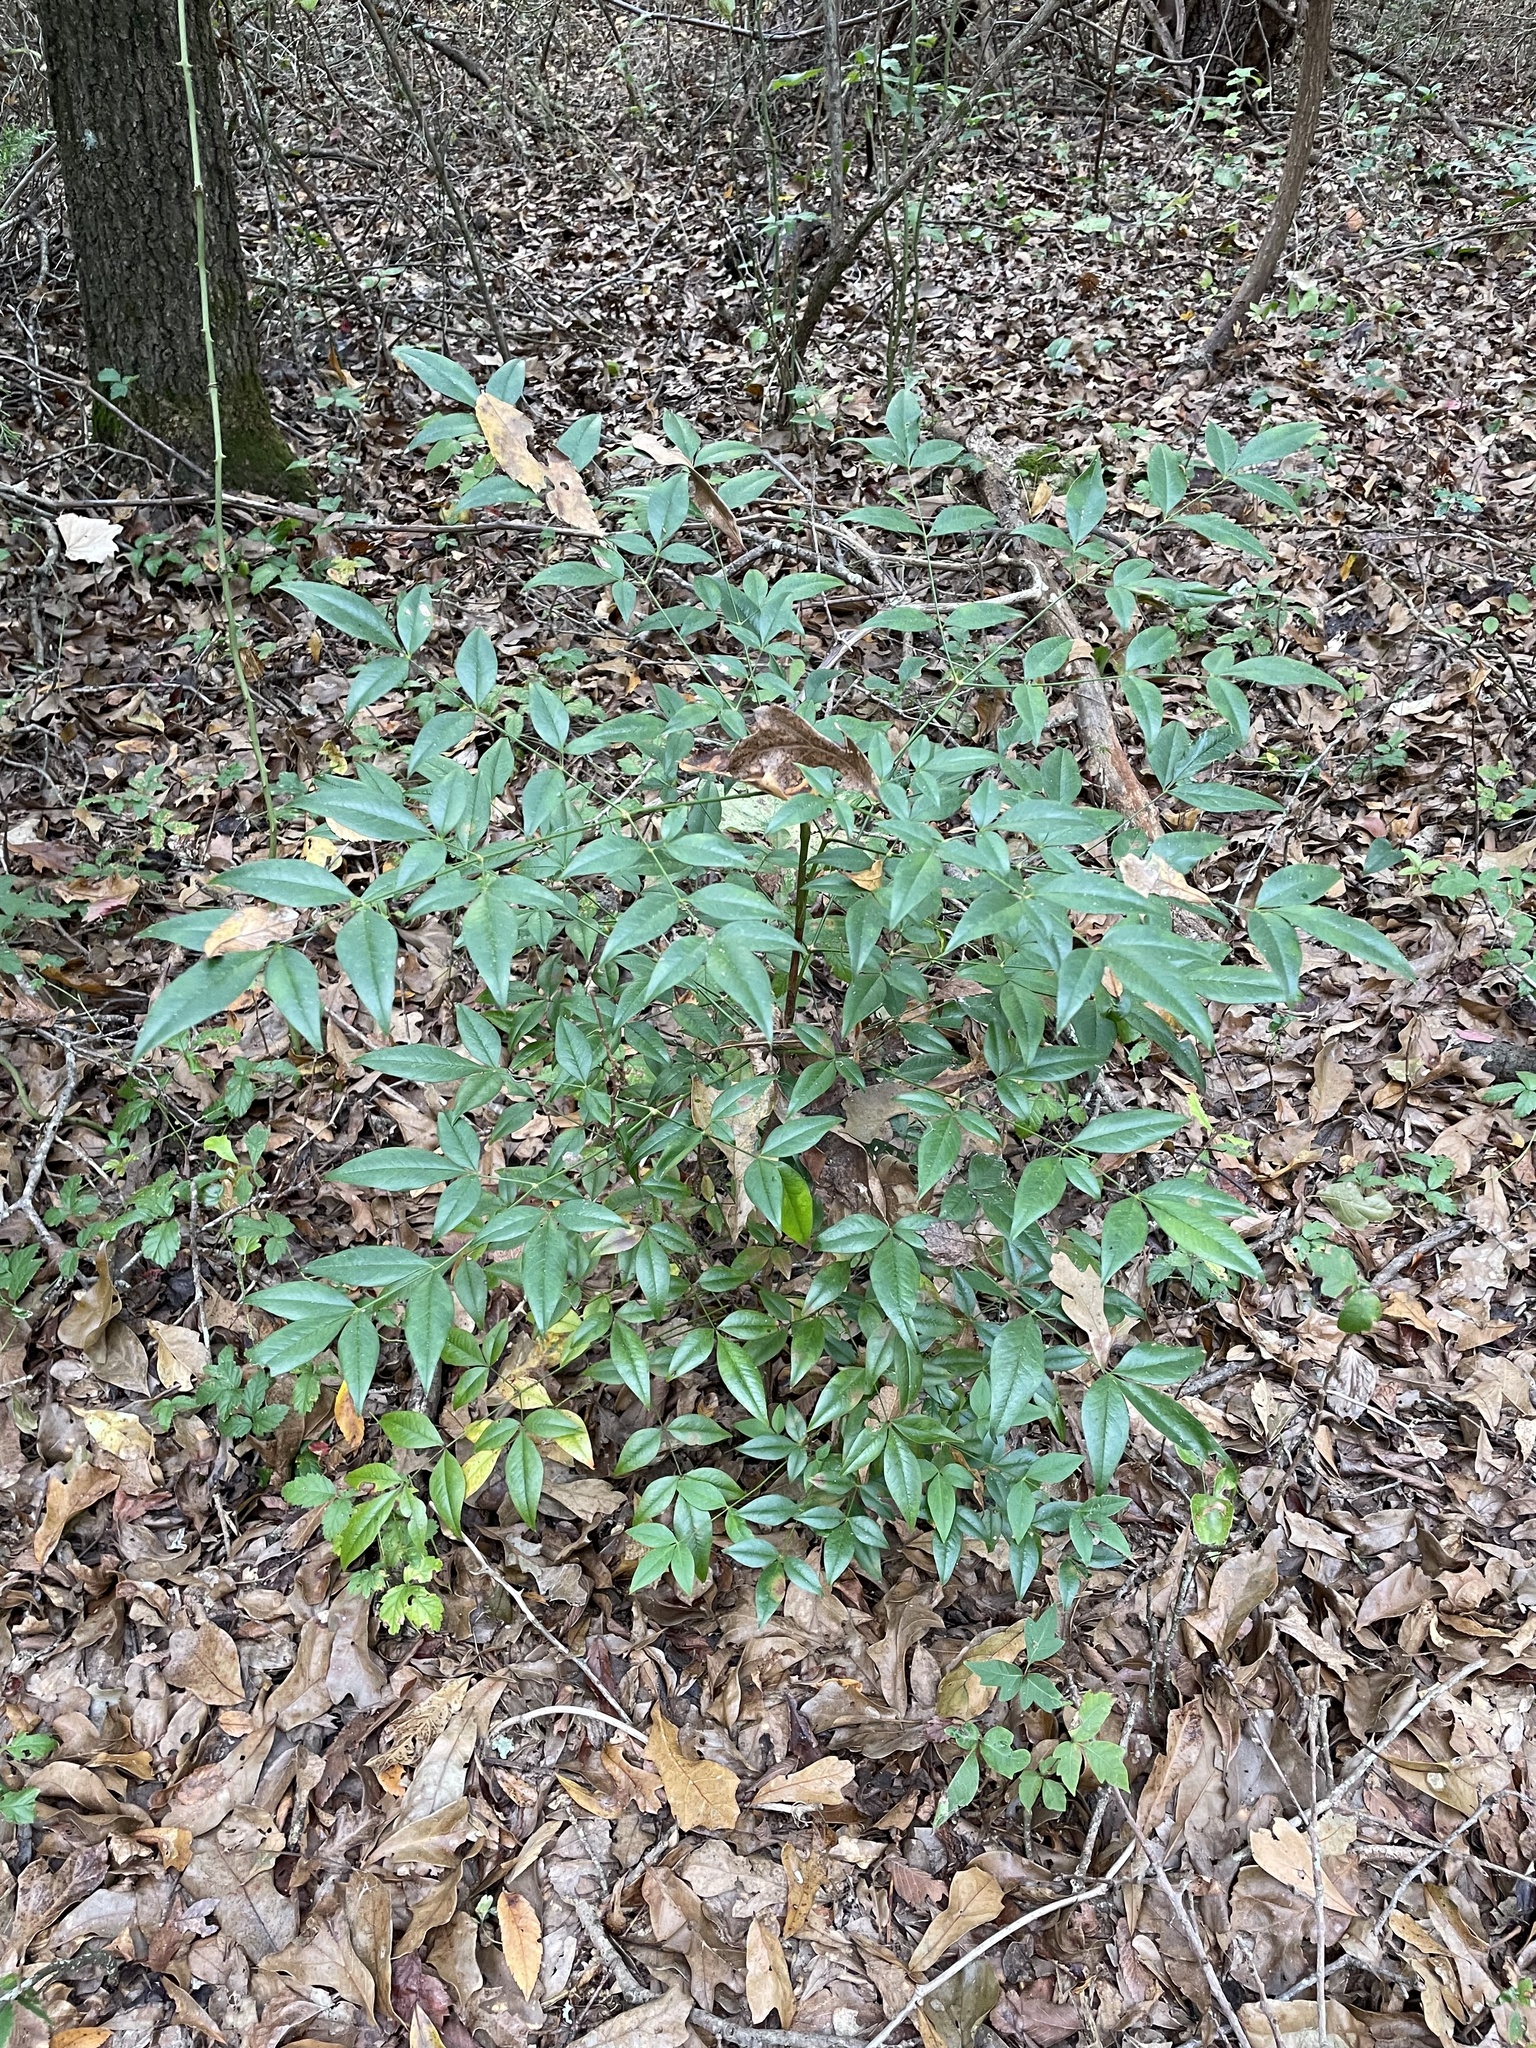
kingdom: Plantae
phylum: Tracheophyta
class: Magnoliopsida
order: Ranunculales
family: Berberidaceae
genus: Nandina
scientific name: Nandina domestica
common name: Sacred bamboo
